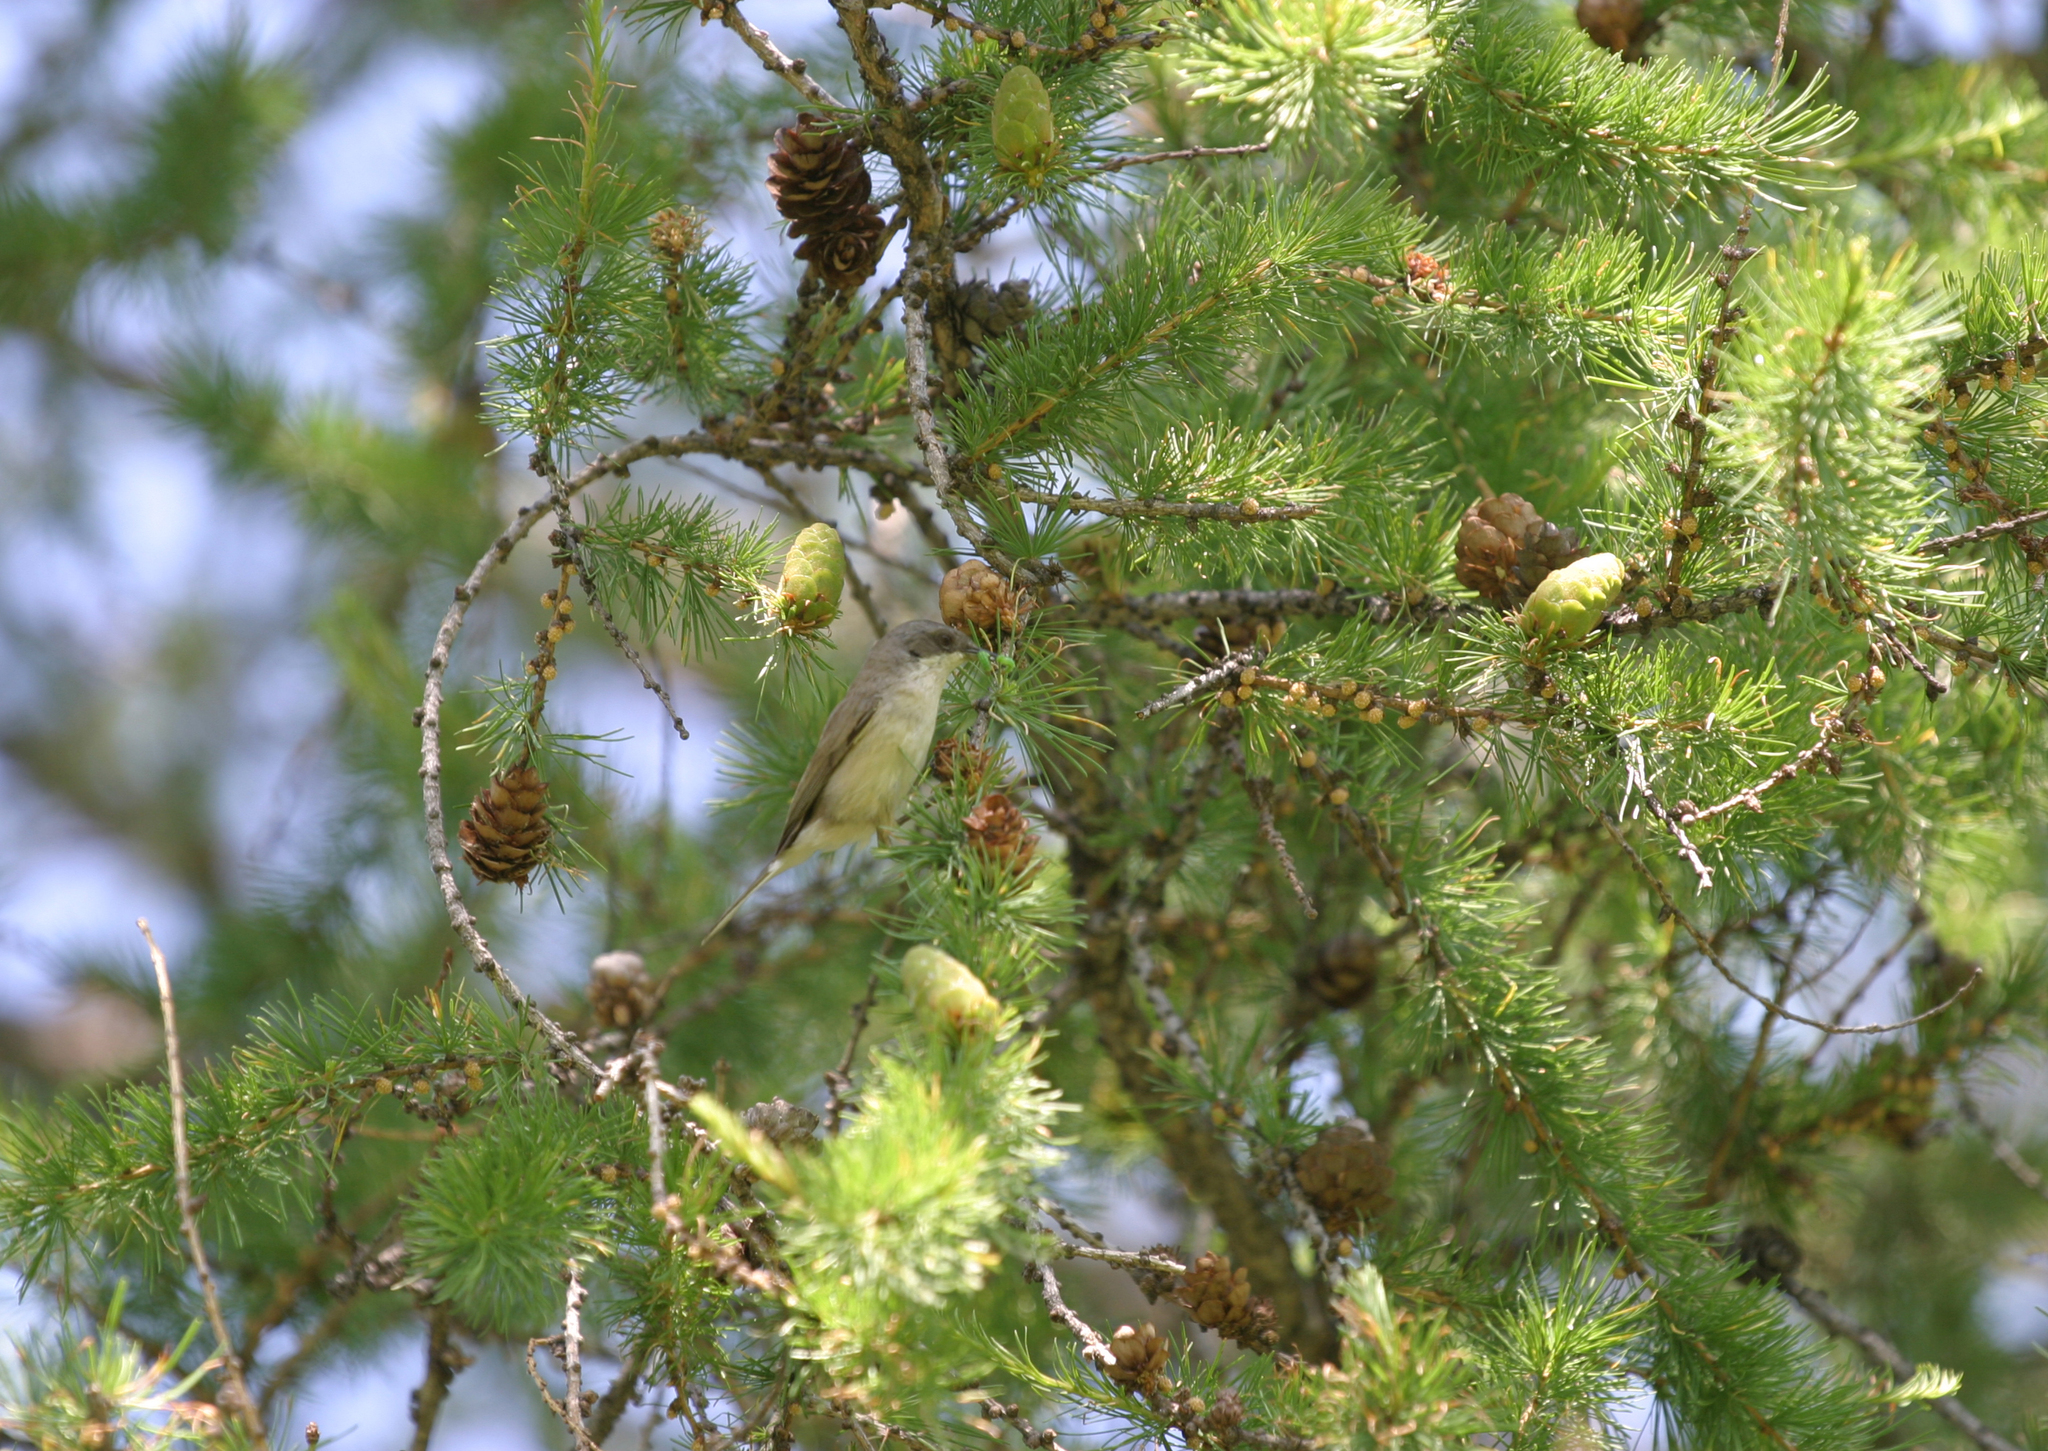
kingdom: Plantae
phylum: Tracheophyta
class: Pinopsida
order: Pinales
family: Pinaceae
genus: Larix
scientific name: Larix sibirica
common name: Siberian larch
